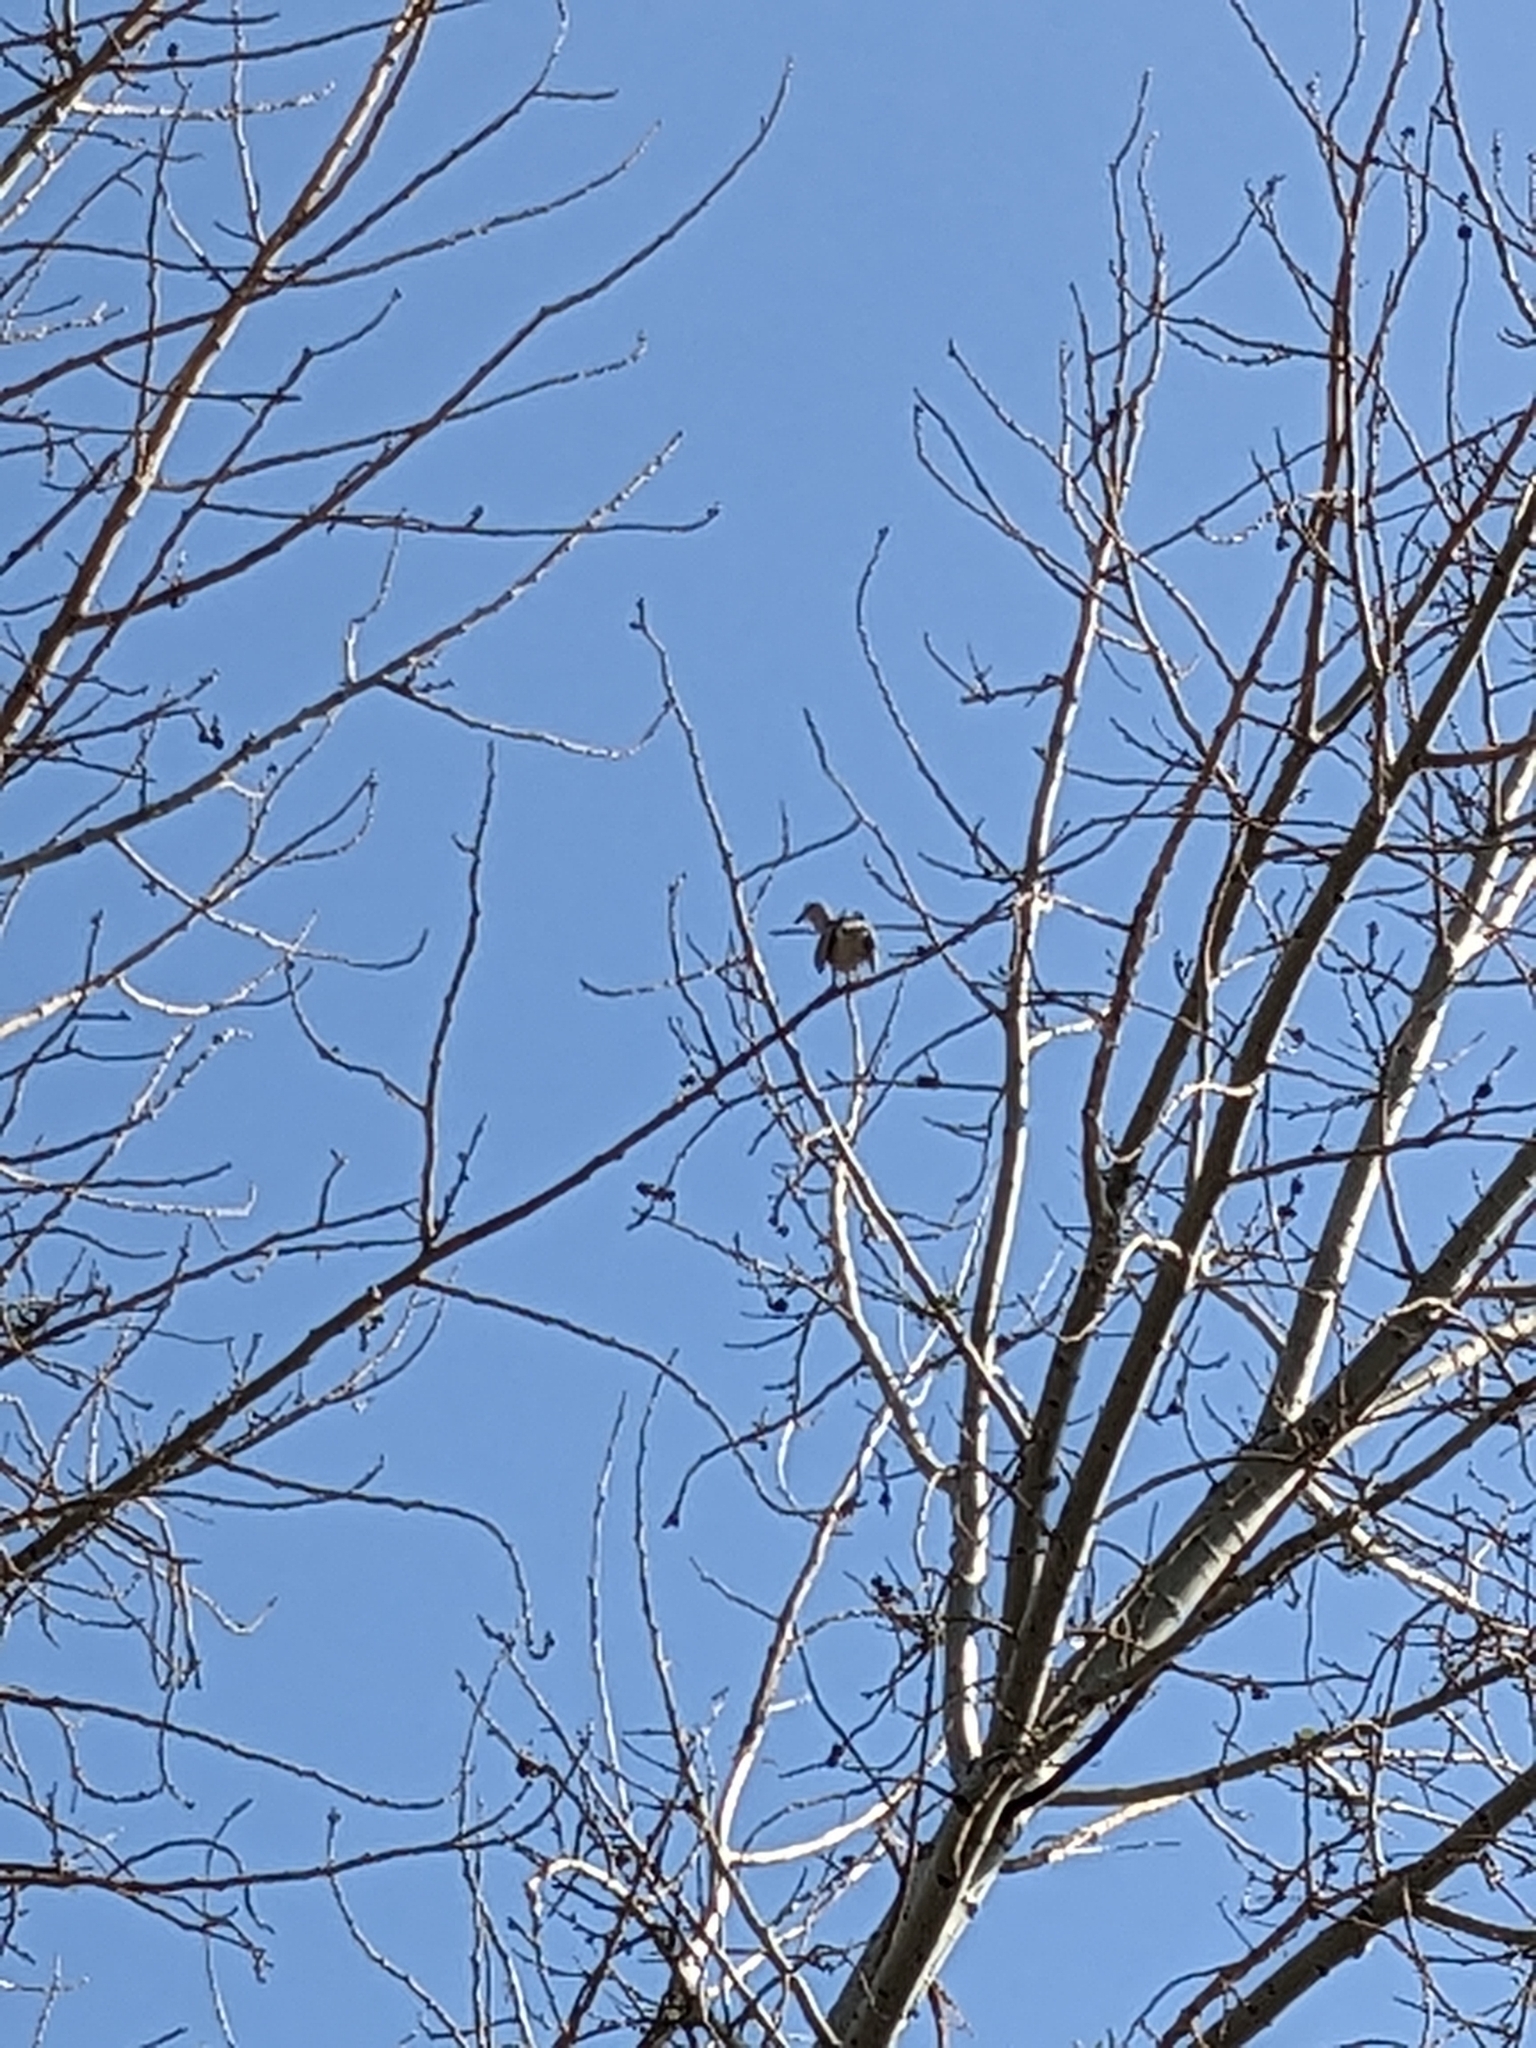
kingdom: Animalia
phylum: Chordata
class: Aves
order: Columbiformes
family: Columbidae
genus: Streptopelia
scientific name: Streptopelia decaocto
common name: Eurasian collared dove
